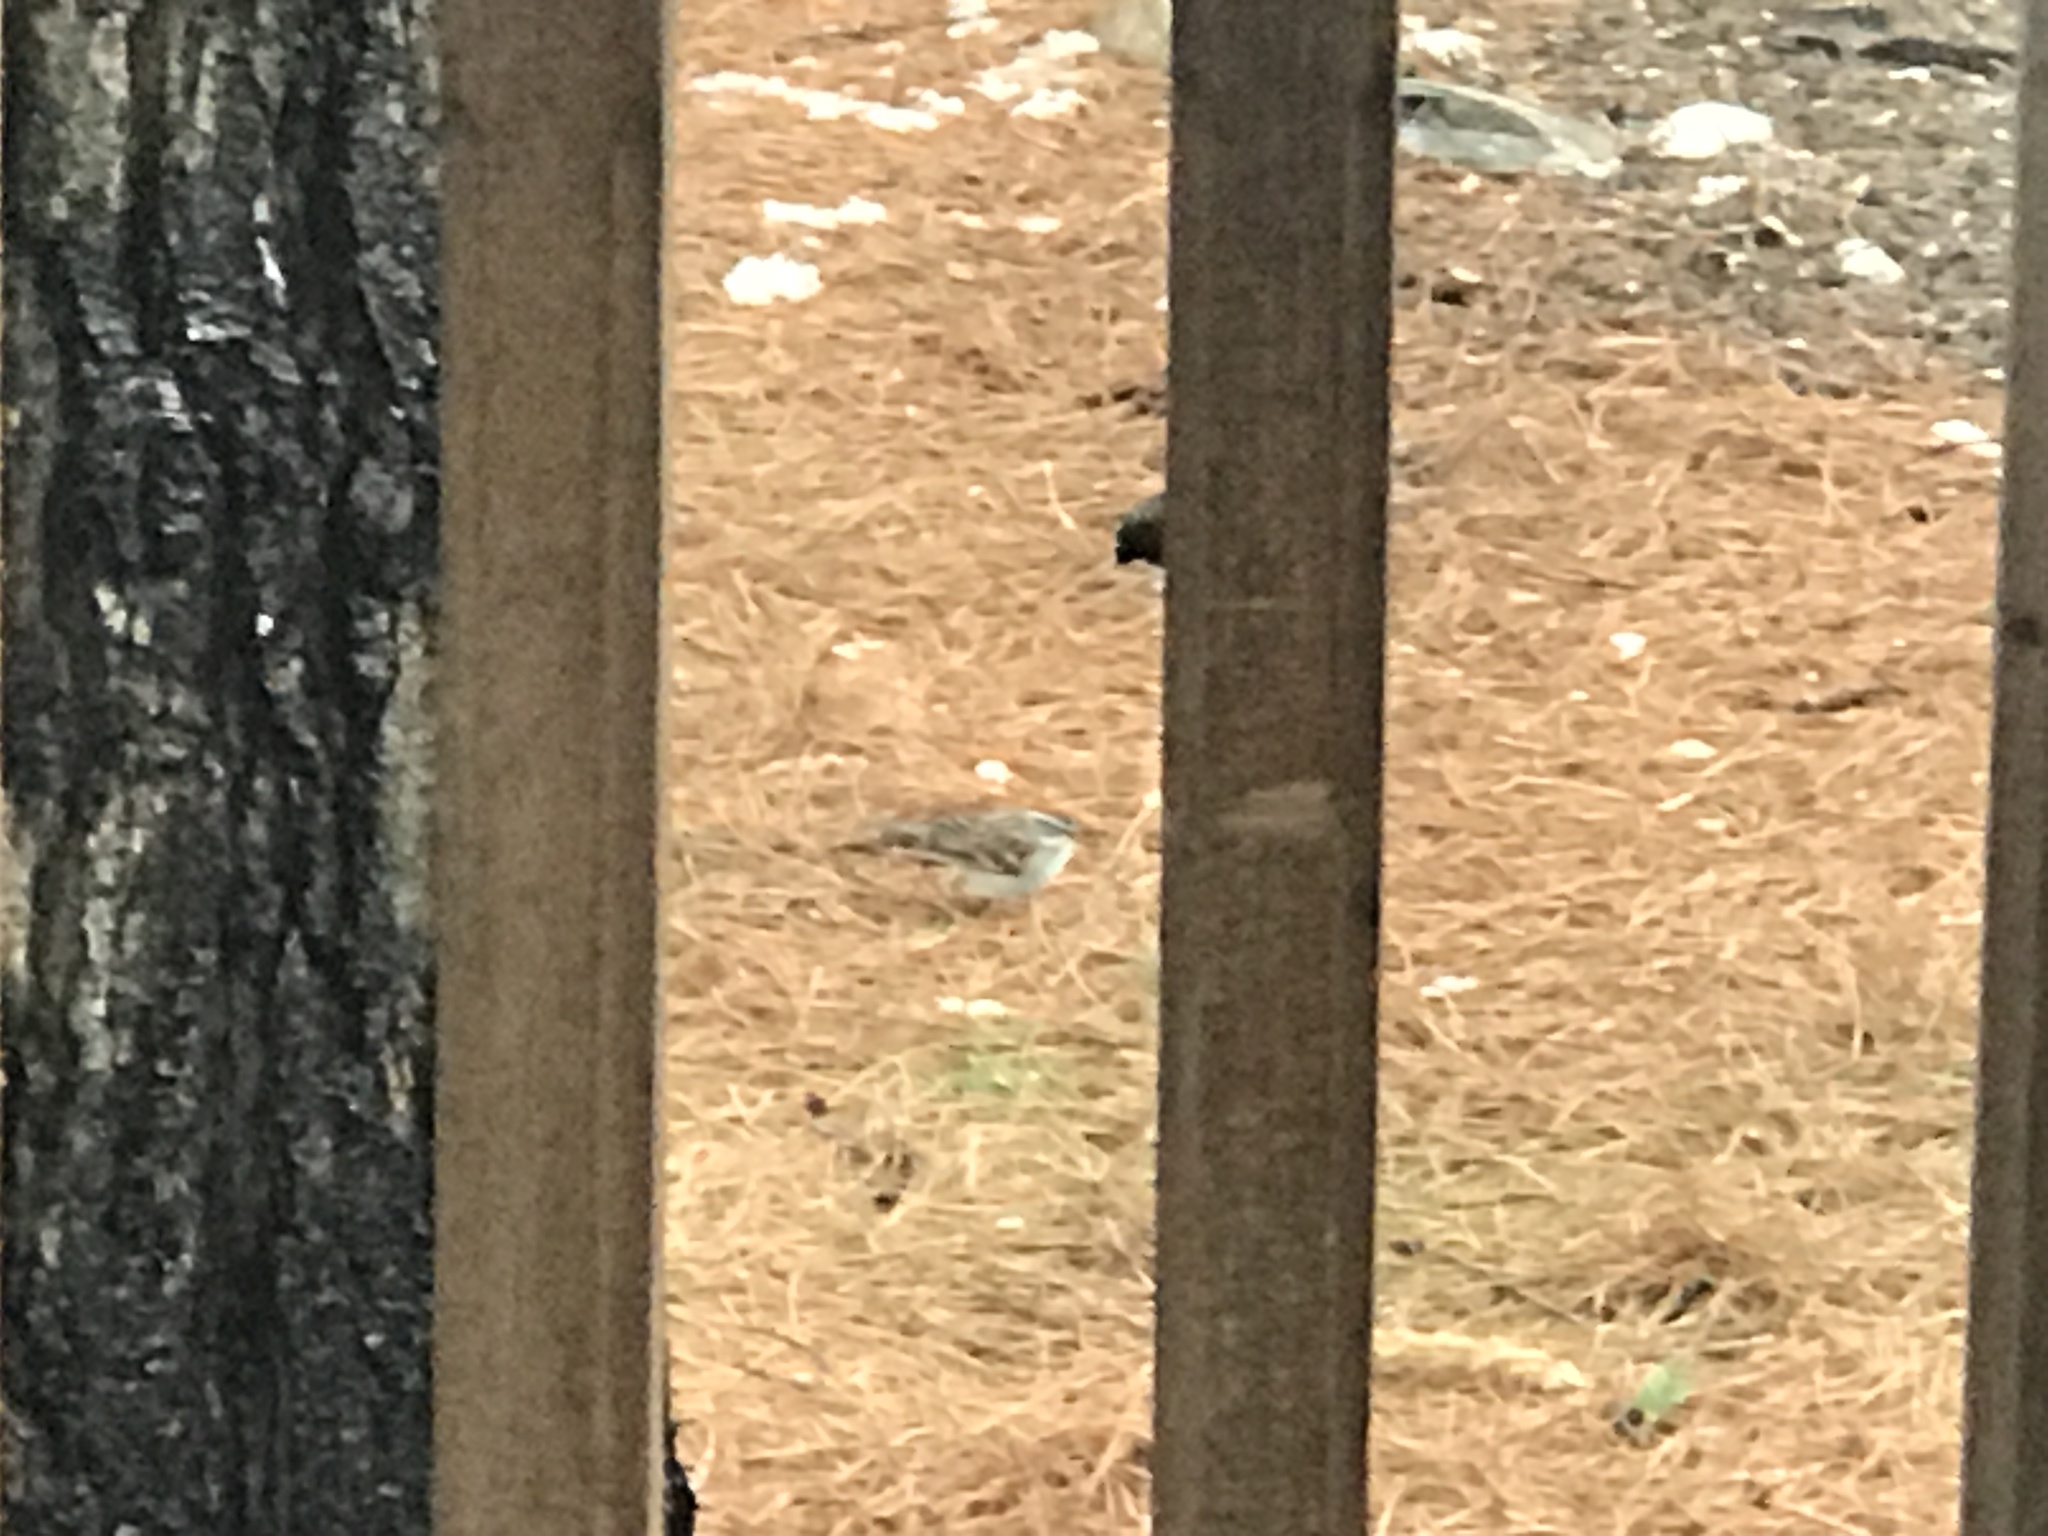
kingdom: Animalia
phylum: Chordata
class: Aves
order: Passeriformes
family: Passerellidae
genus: Spizella
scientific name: Spizella passerina
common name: Chipping sparrow
